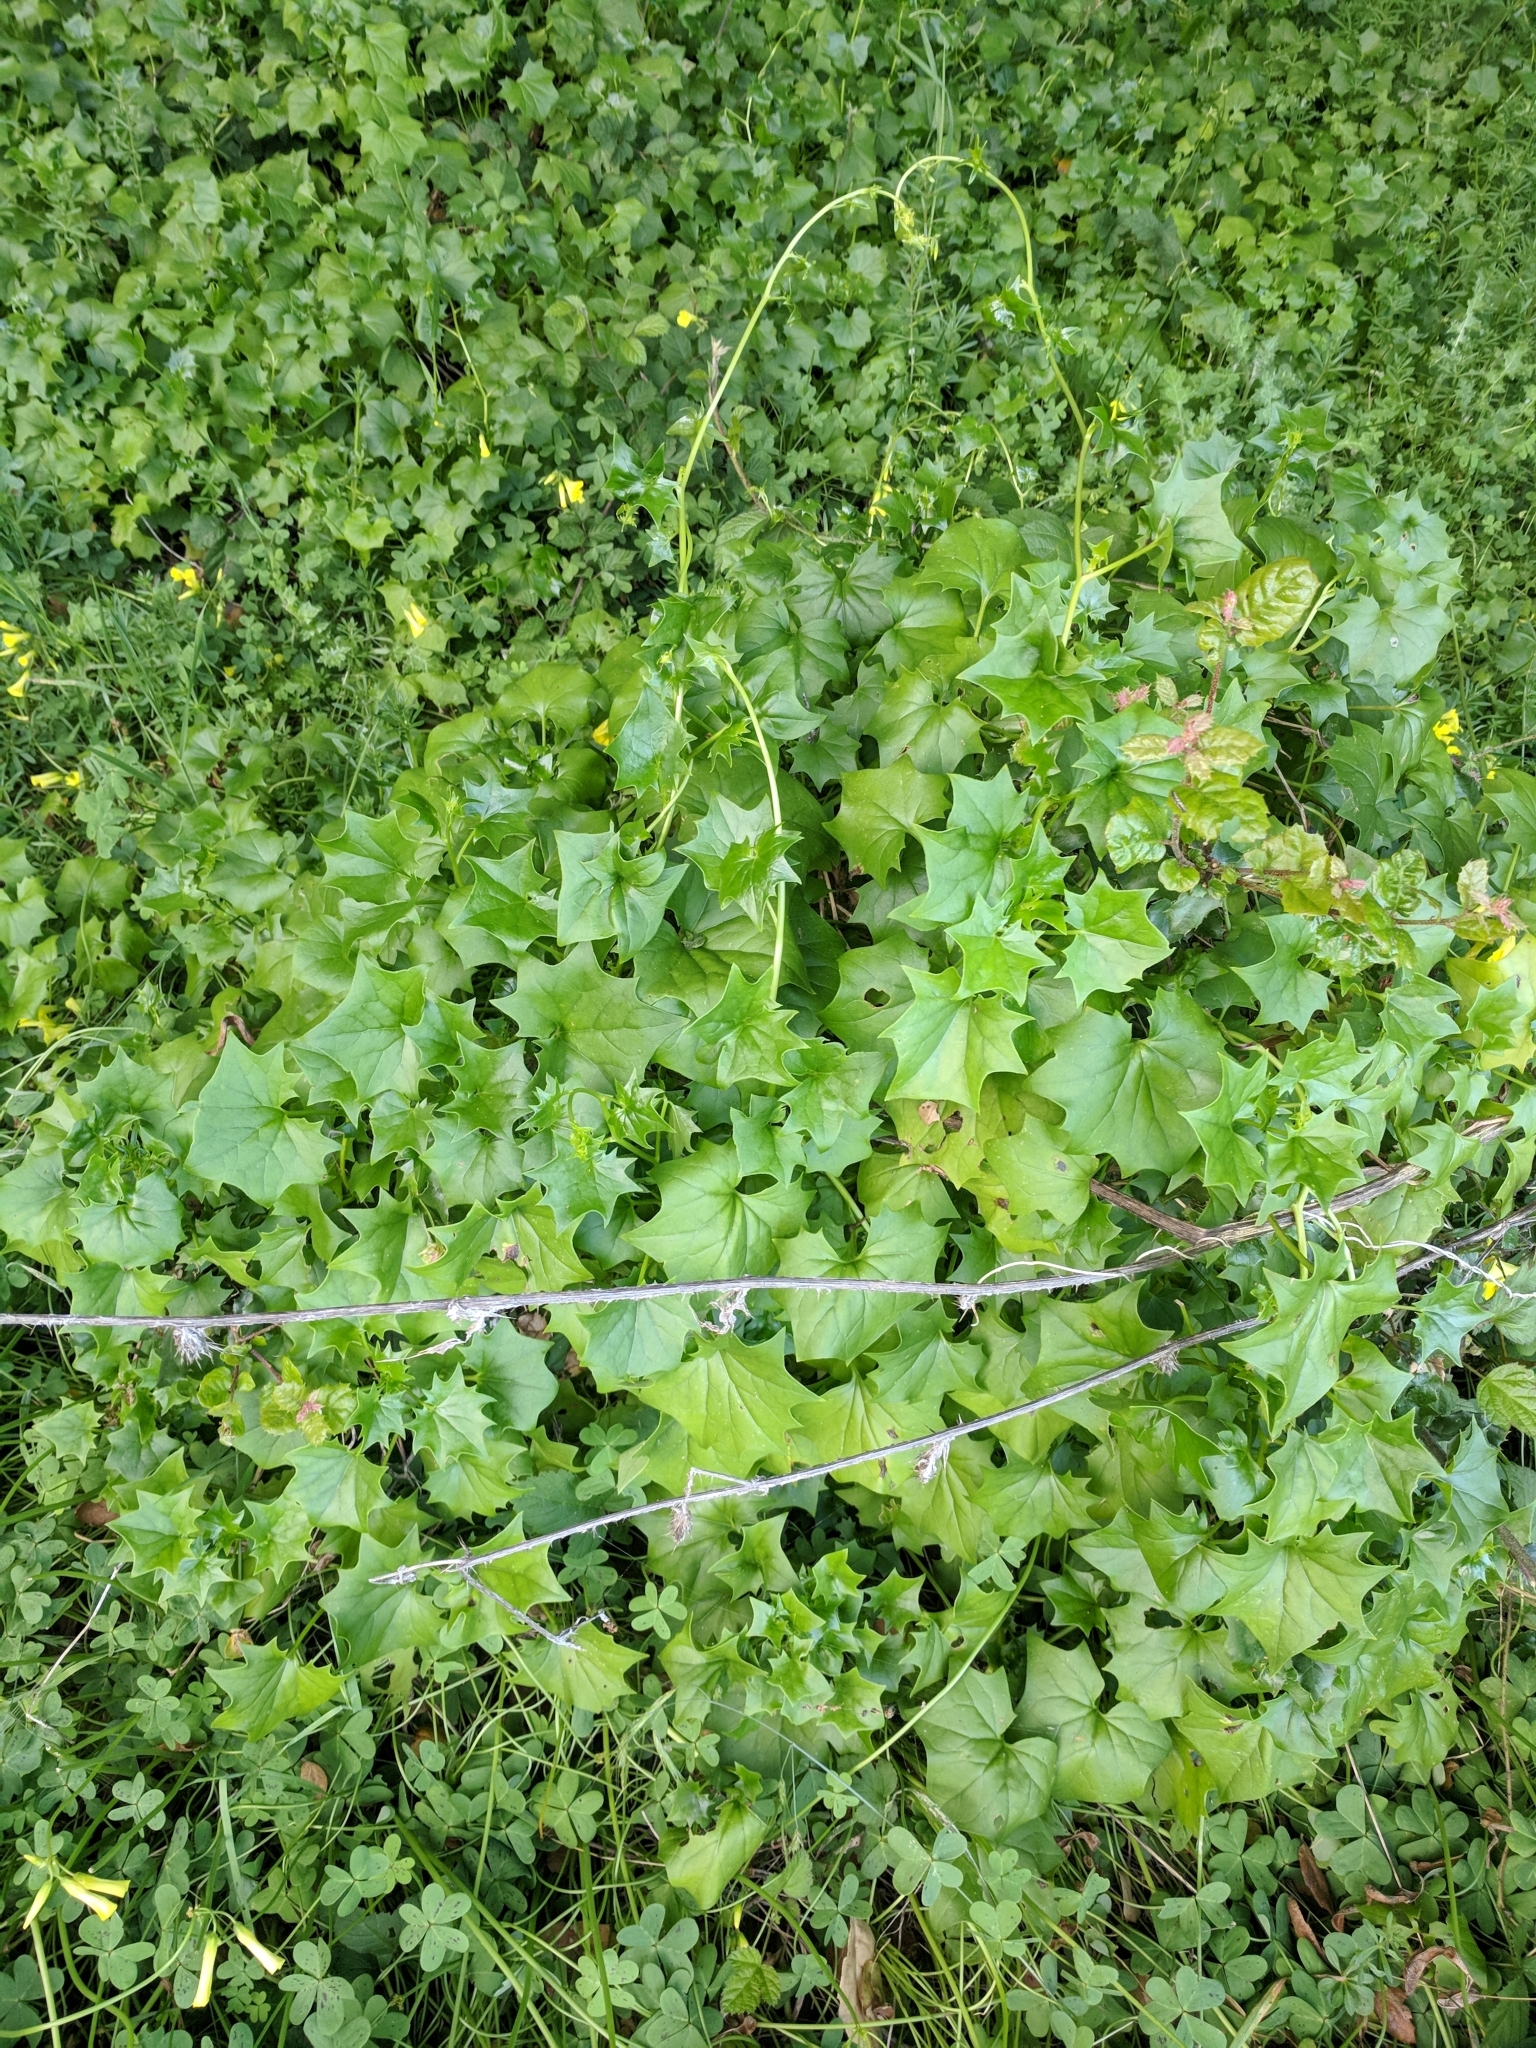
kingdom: Plantae
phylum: Tracheophyta
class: Magnoliopsida
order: Asterales
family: Asteraceae
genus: Delairea
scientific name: Delairea odorata
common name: Cape-ivy
